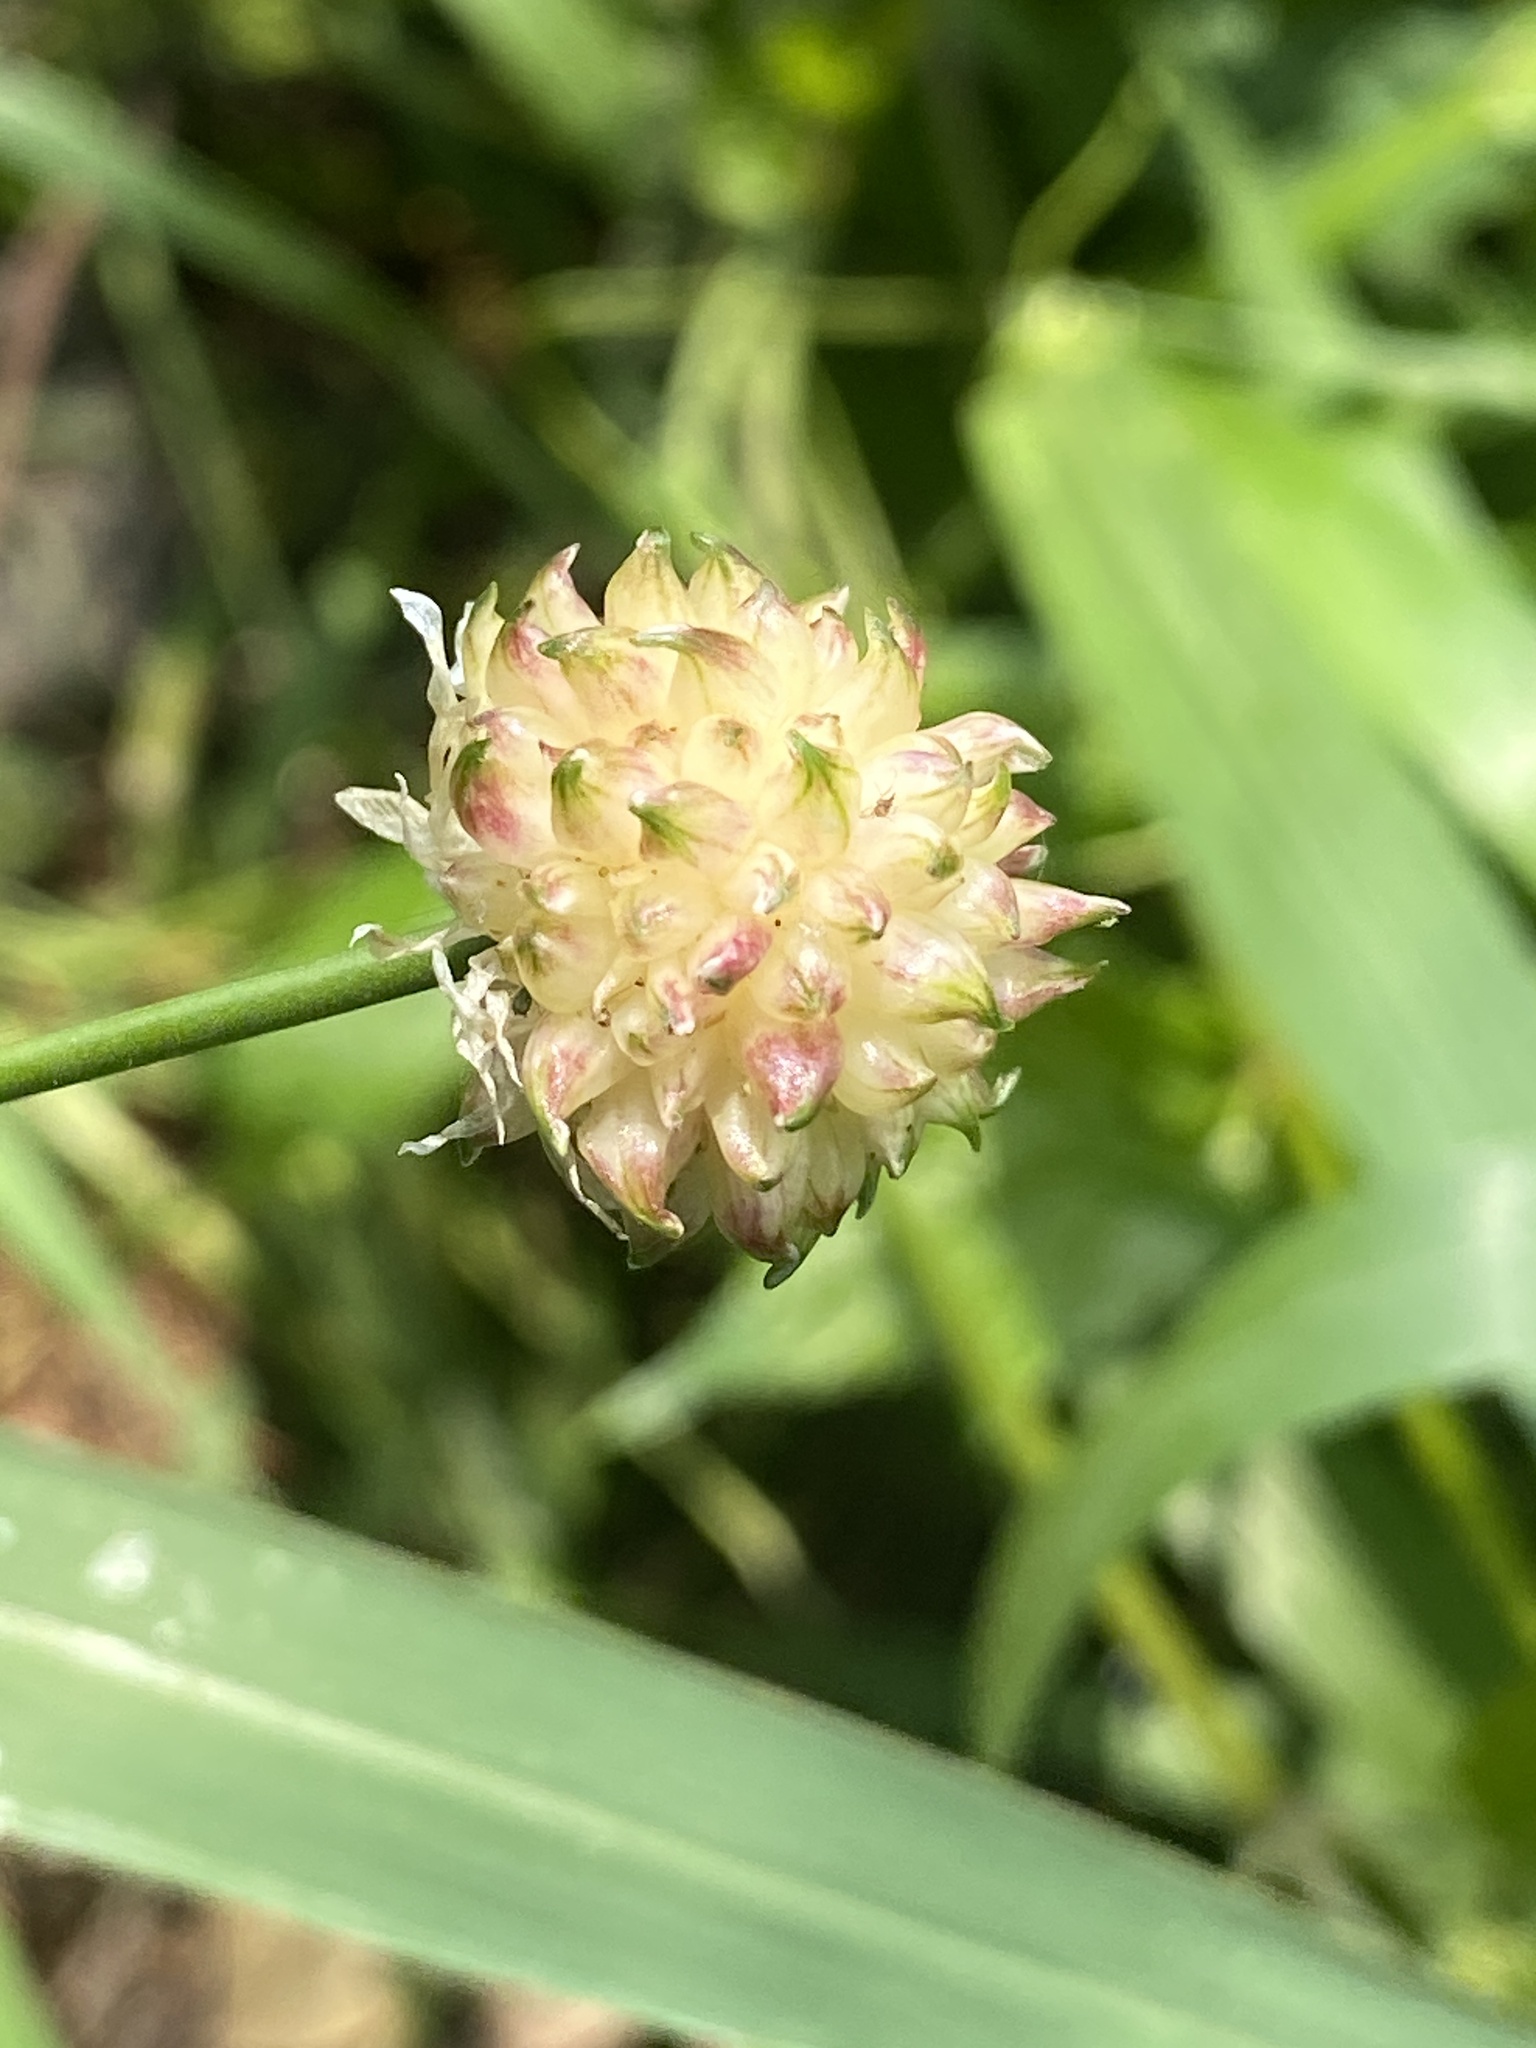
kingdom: Plantae
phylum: Tracheophyta
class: Liliopsida
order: Asparagales
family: Amaryllidaceae
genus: Allium
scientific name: Allium vineale
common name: Crow garlic
